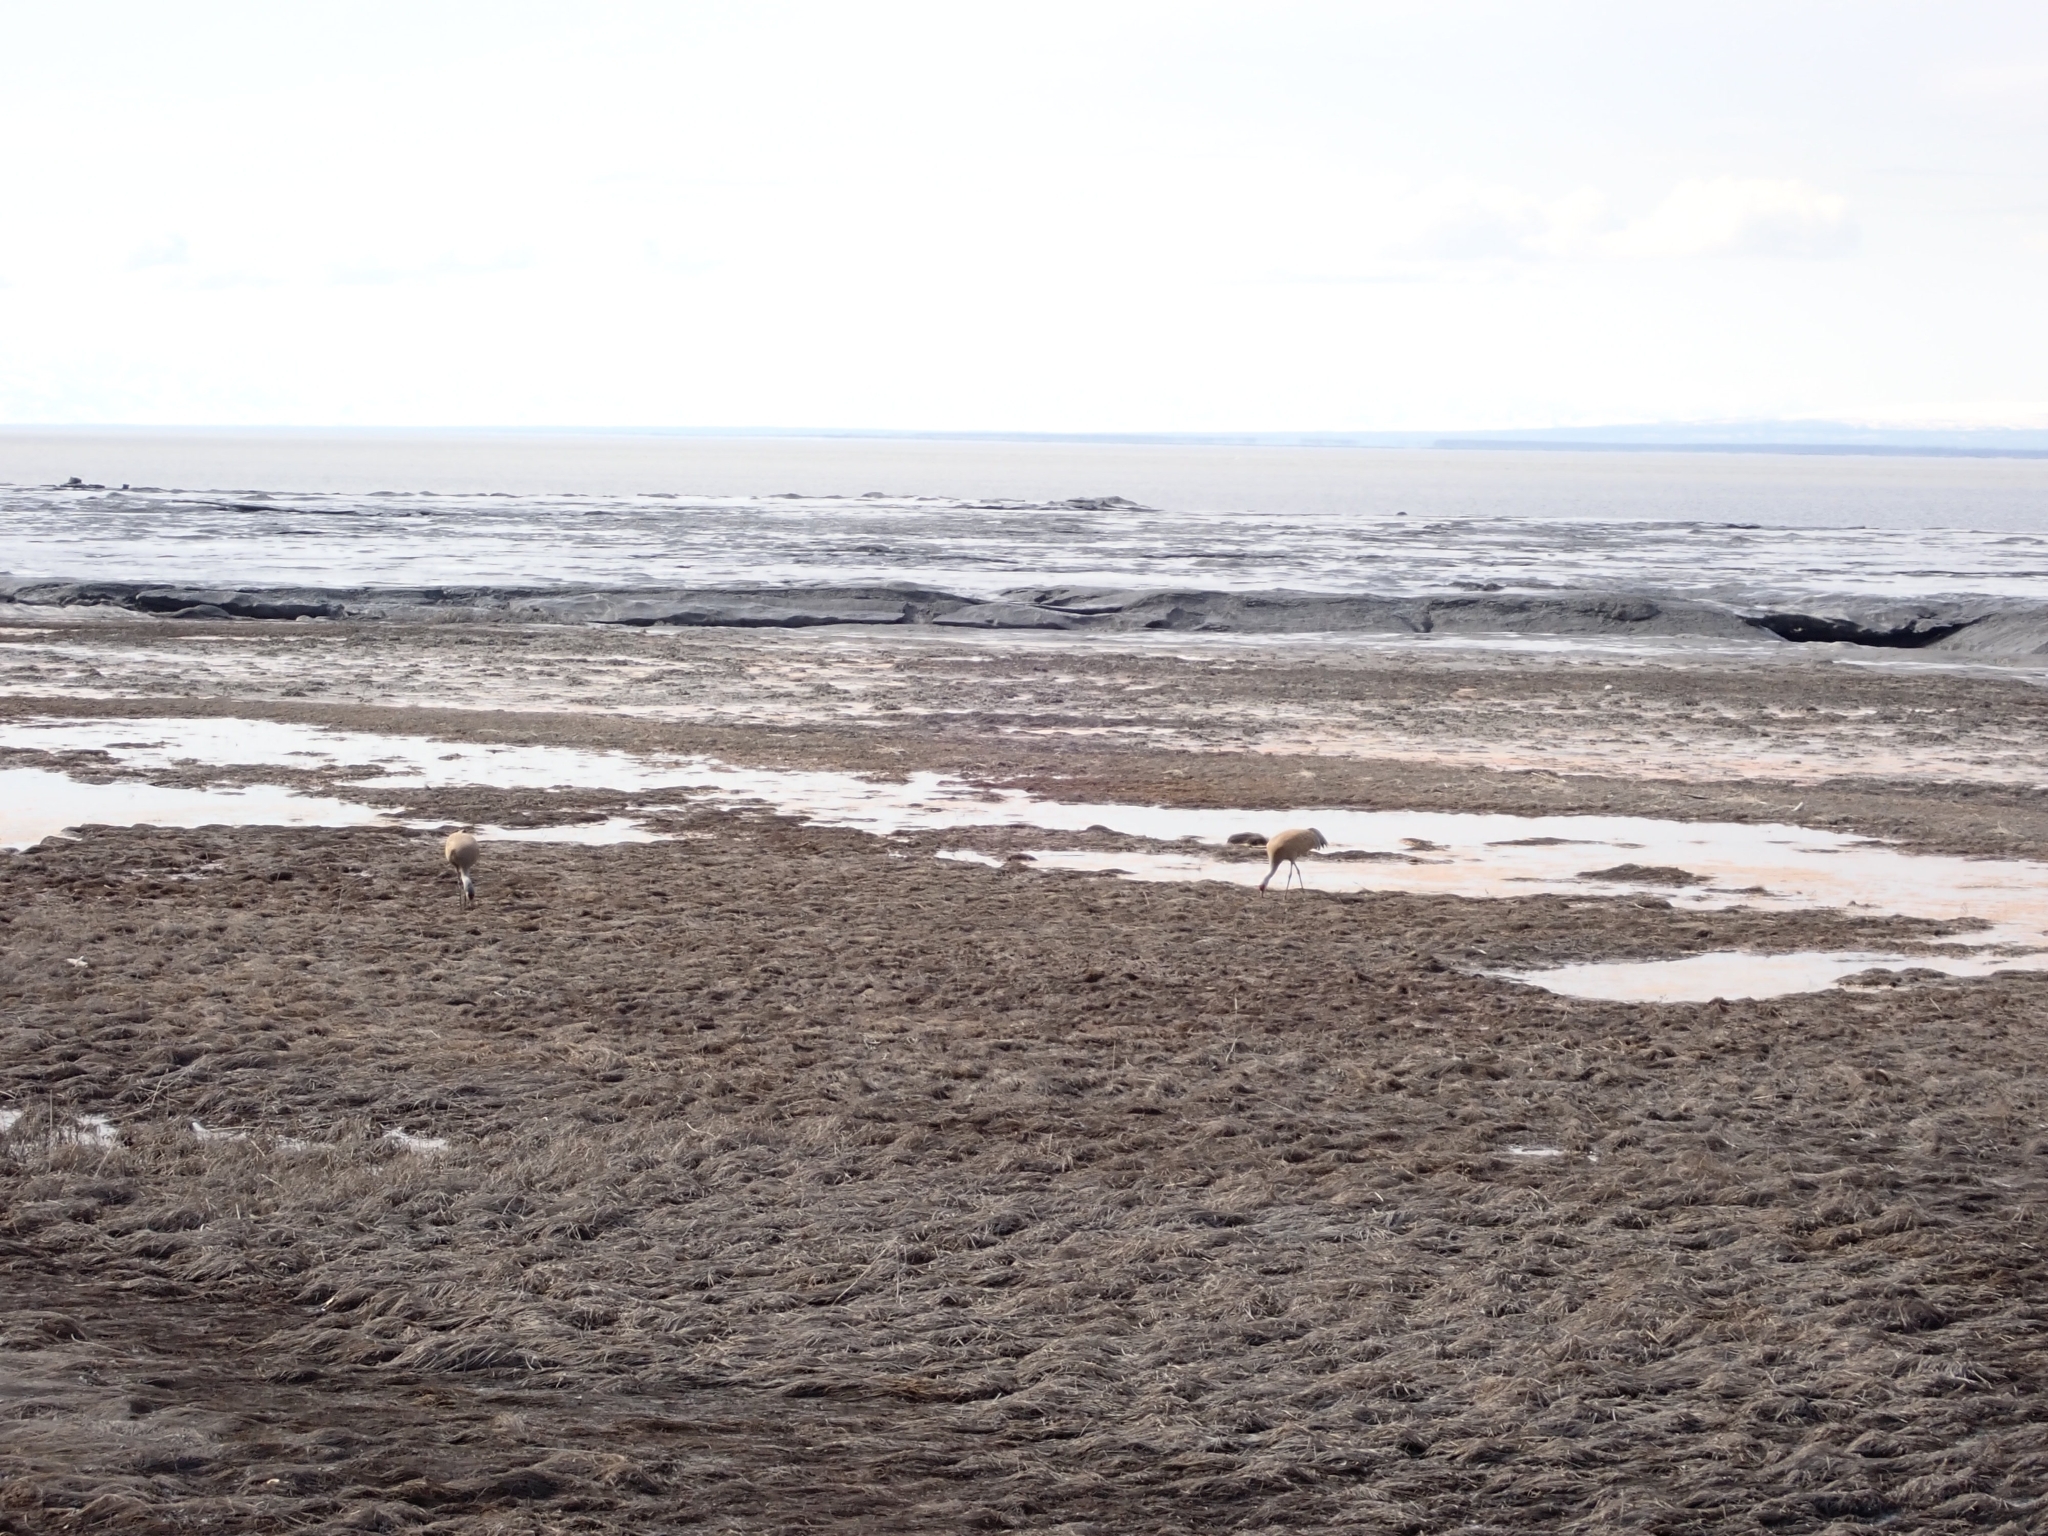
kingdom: Animalia
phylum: Chordata
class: Aves
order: Gruiformes
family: Gruidae
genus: Grus
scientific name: Grus canadensis
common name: Sandhill crane
